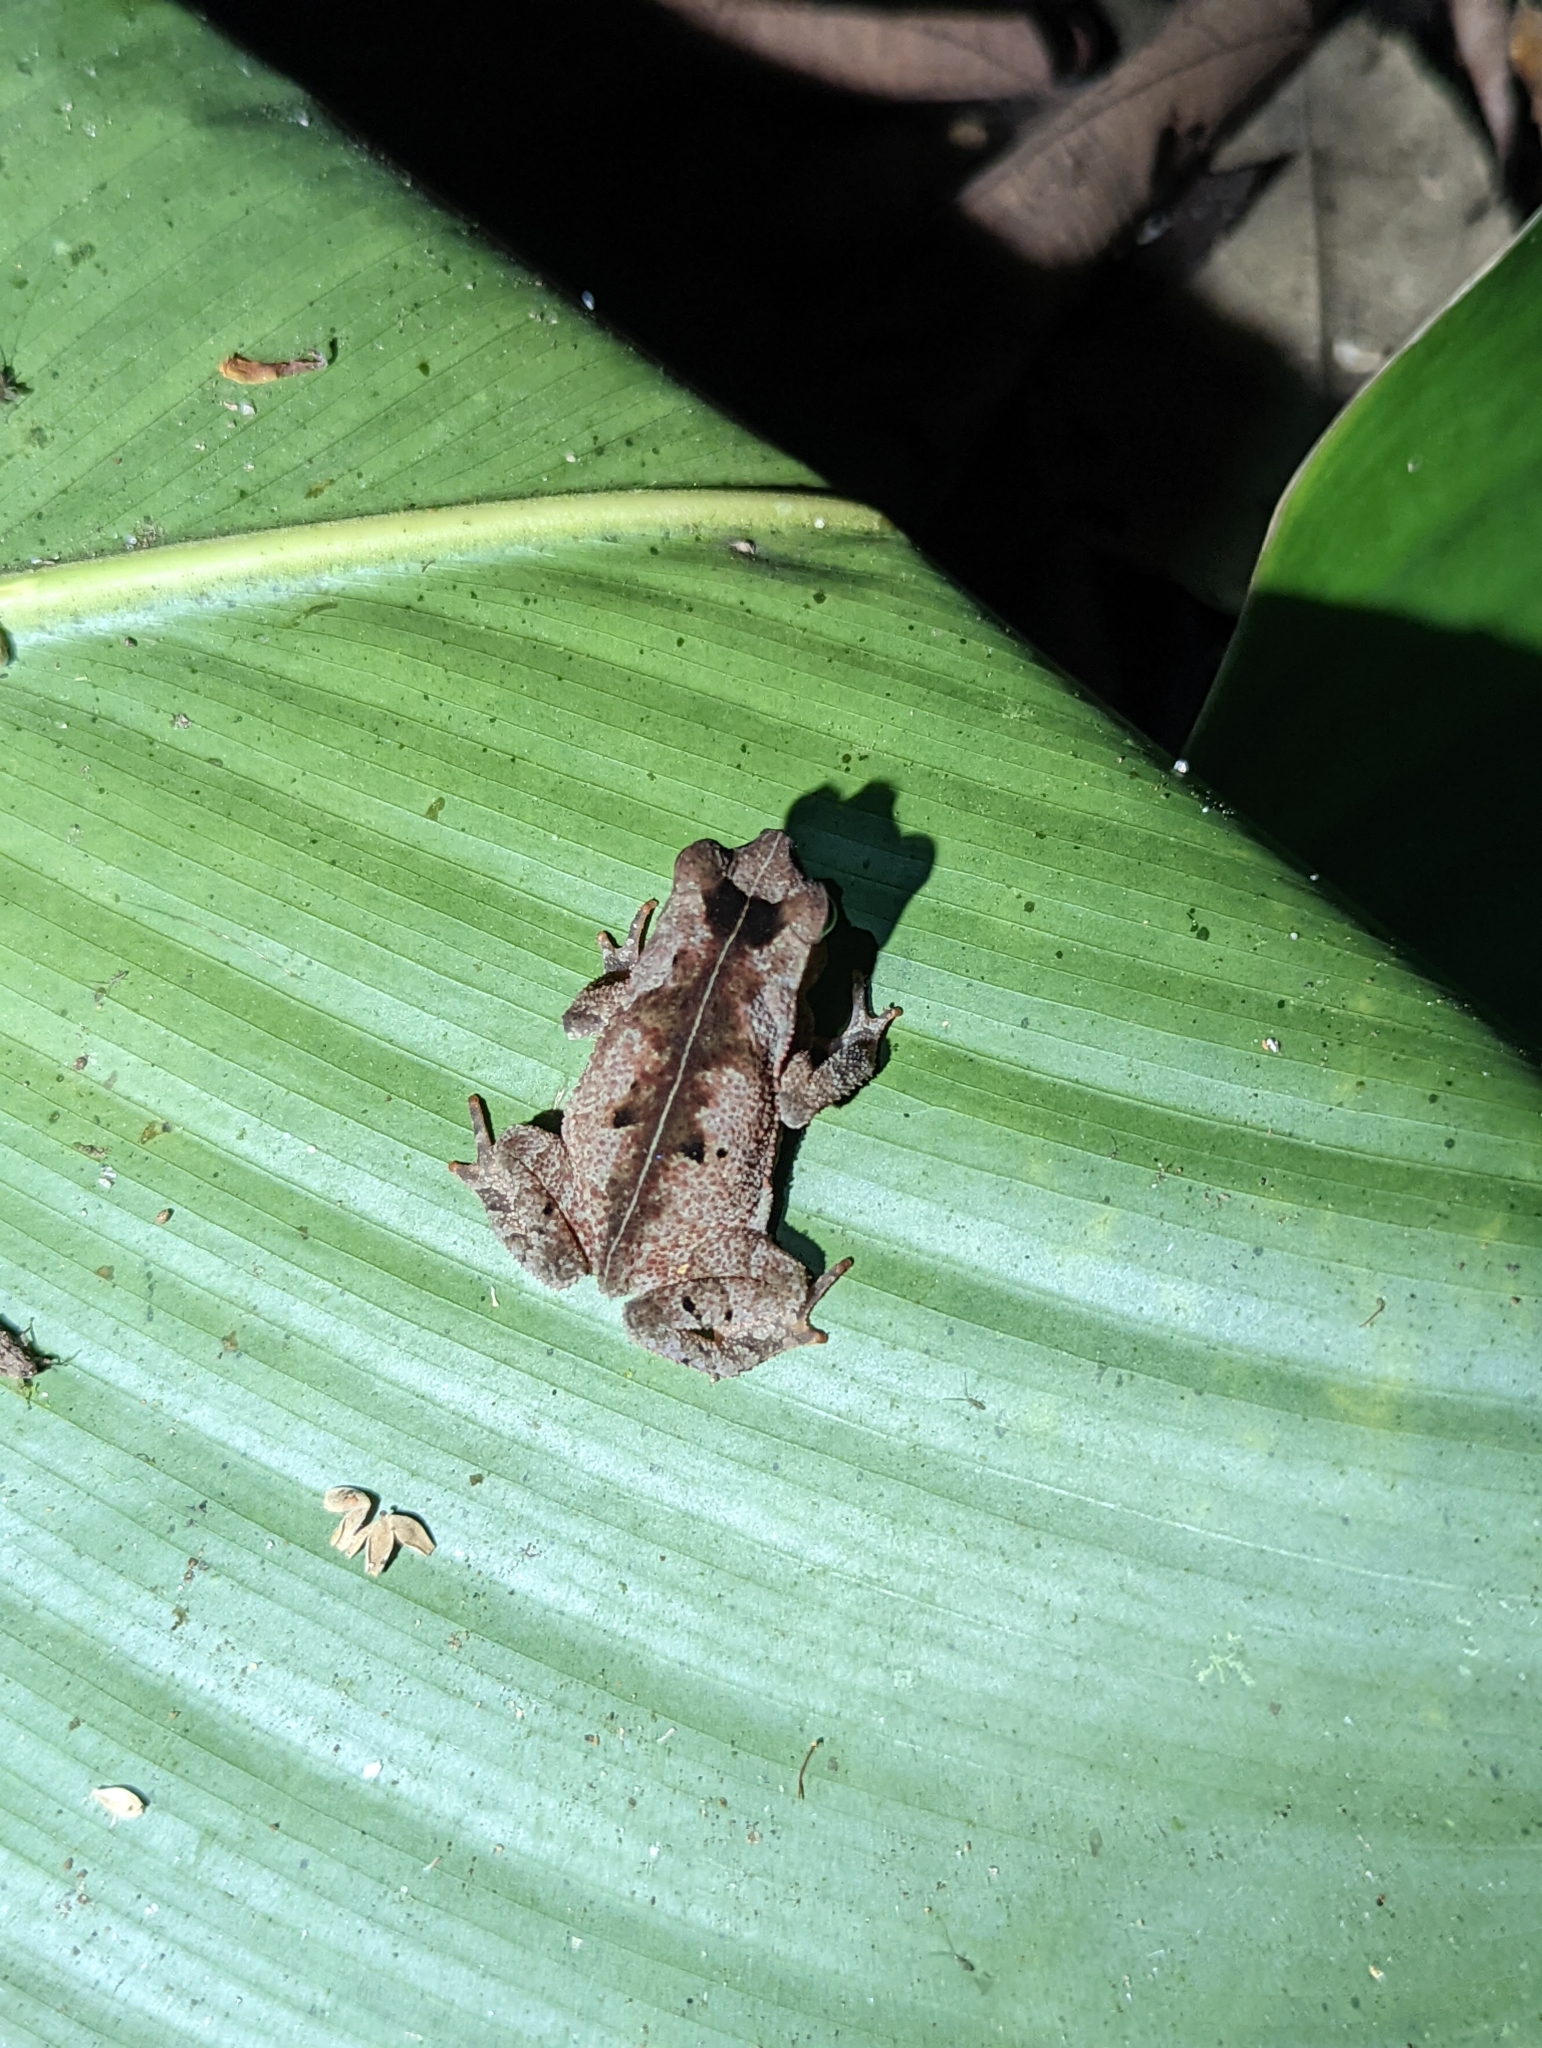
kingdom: Animalia
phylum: Chordata
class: Amphibia
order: Anura
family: Bufonidae
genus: Rhinella
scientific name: Rhinella alata
